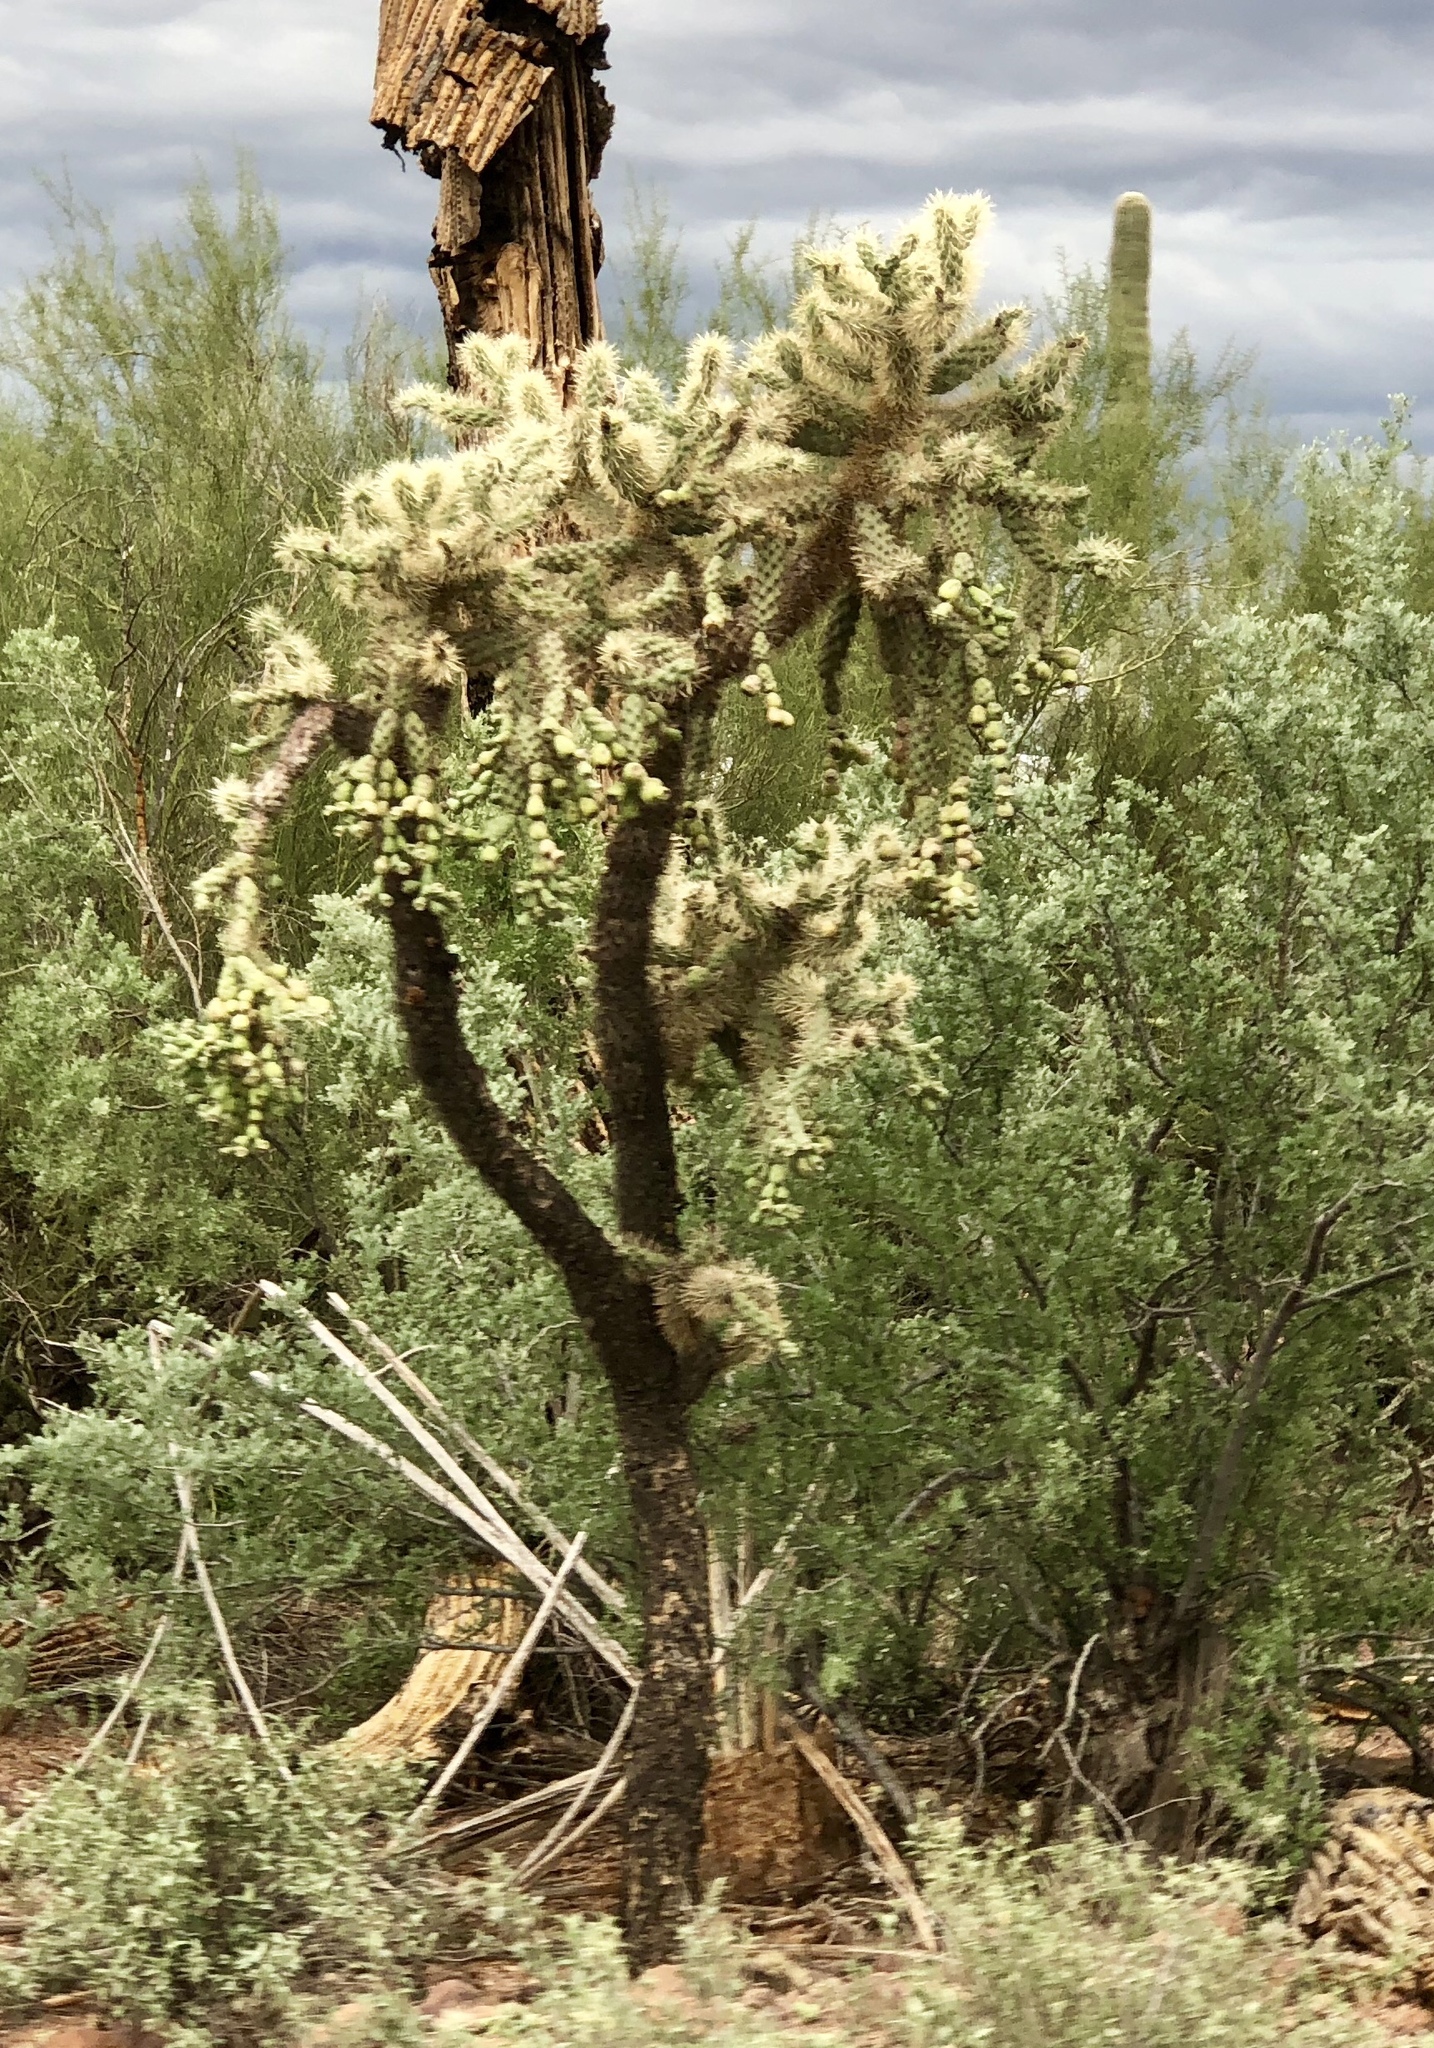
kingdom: Plantae
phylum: Tracheophyta
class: Magnoliopsida
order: Caryophyllales
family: Cactaceae
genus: Cylindropuntia
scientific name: Cylindropuntia fulgida
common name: Jumping cholla
